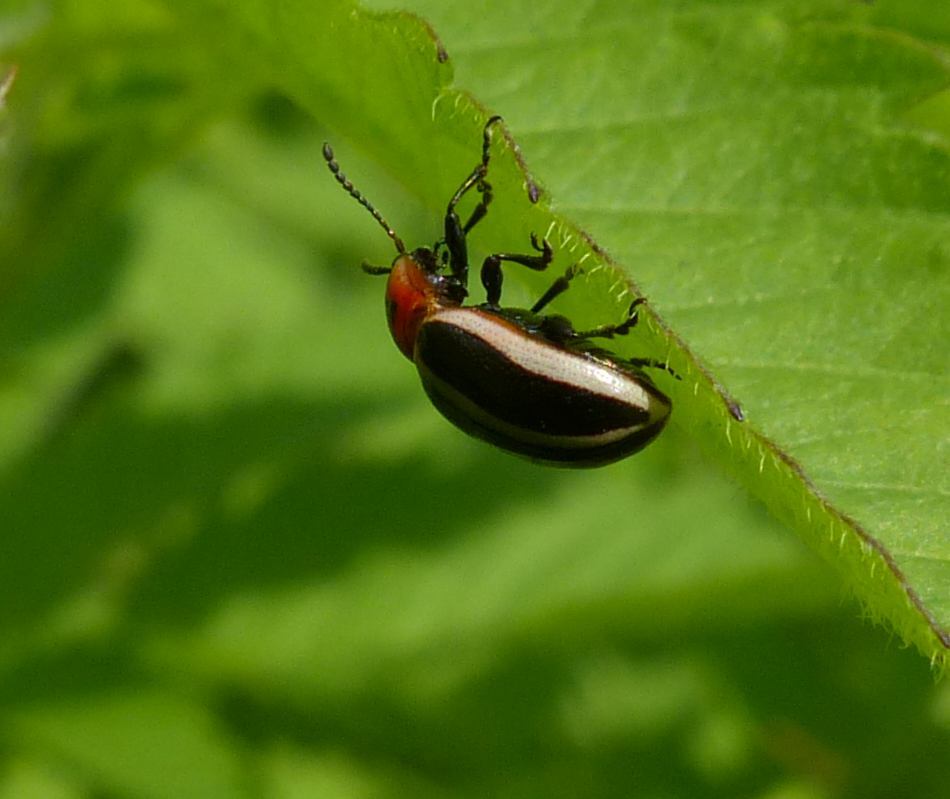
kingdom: Animalia
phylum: Arthropoda
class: Insecta
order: Coleoptera
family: Chrysomelidae
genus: Calligrapha
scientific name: Calligrapha californica
